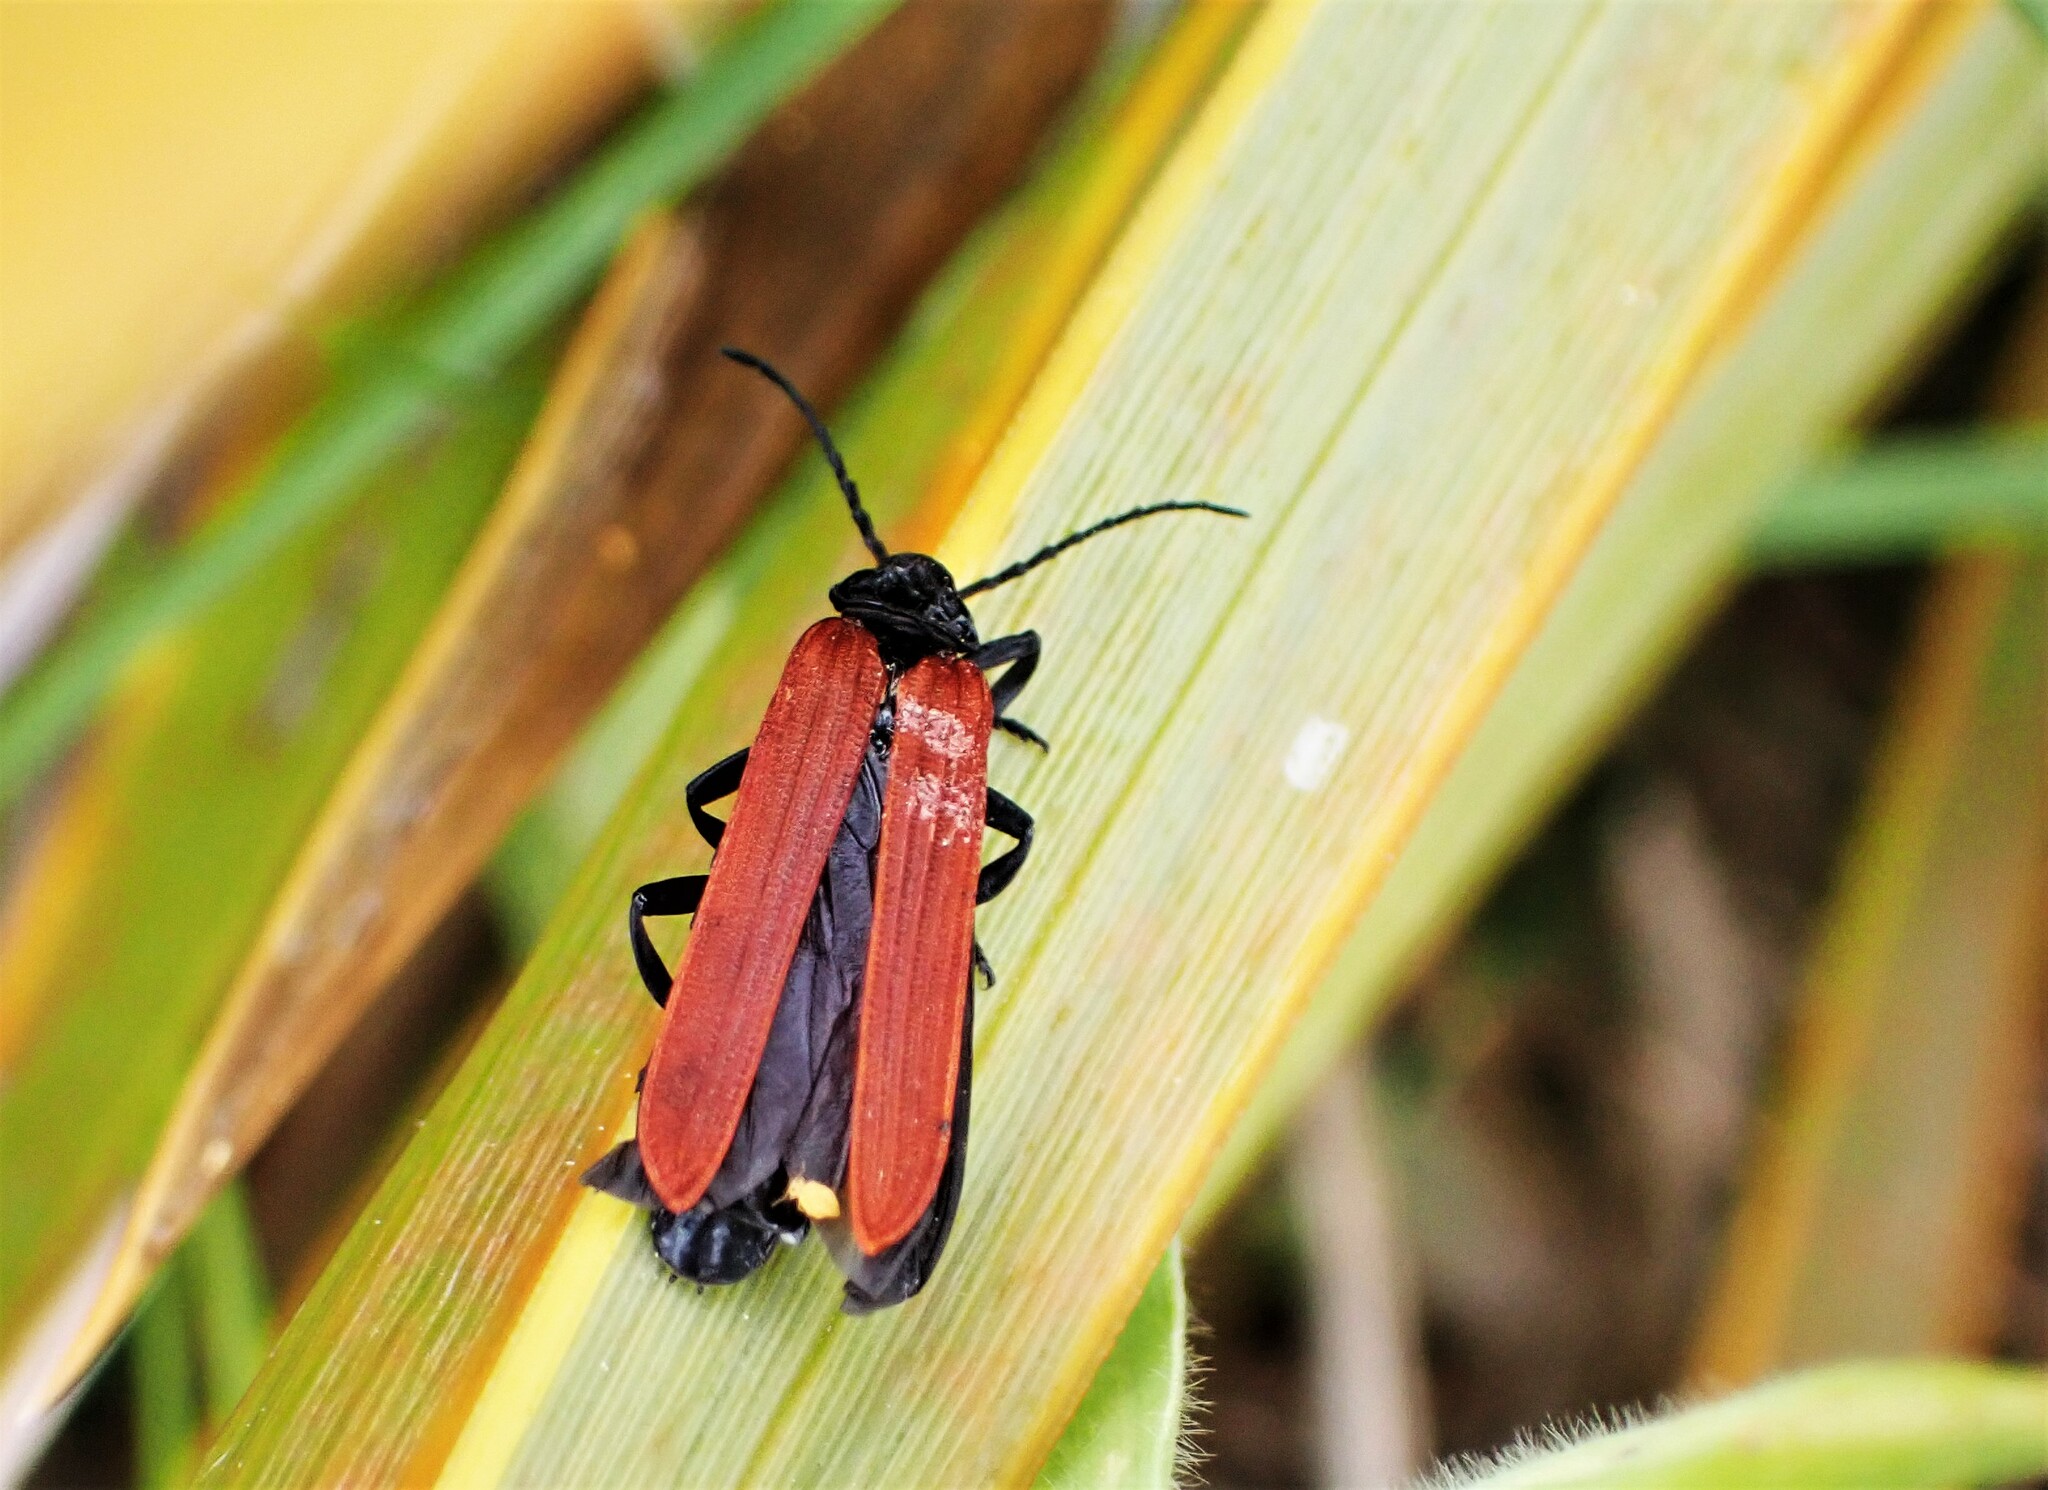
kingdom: Animalia
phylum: Arthropoda
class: Insecta
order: Coleoptera
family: Lycidae
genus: Porrostoma
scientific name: Porrostoma rufipenne
